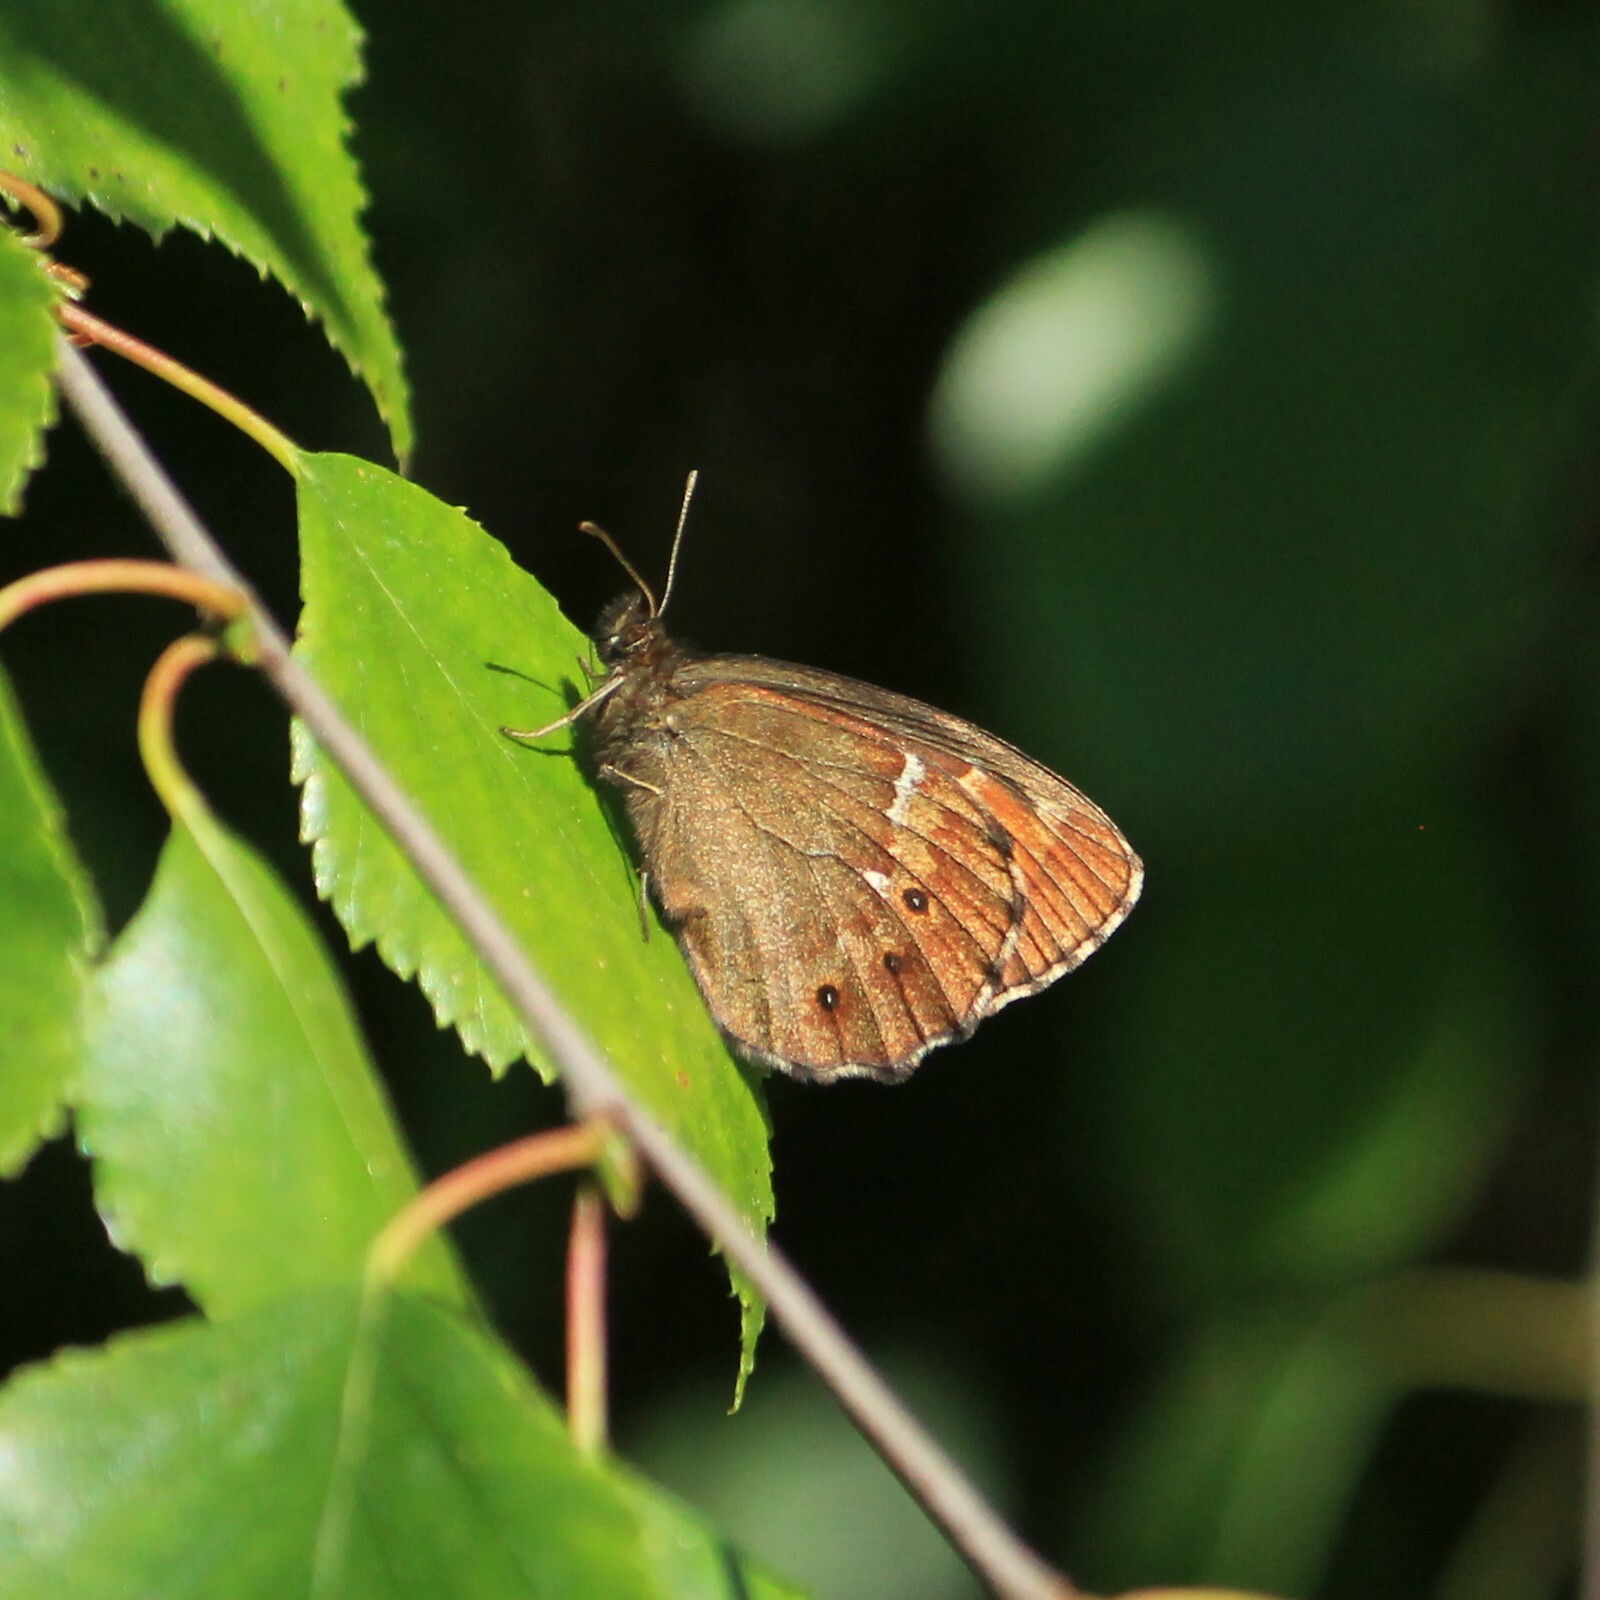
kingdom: Animalia
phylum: Arthropoda
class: Insecta
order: Lepidoptera
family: Nymphalidae
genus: Erebia
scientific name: Erebia ligea
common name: Arran brown
